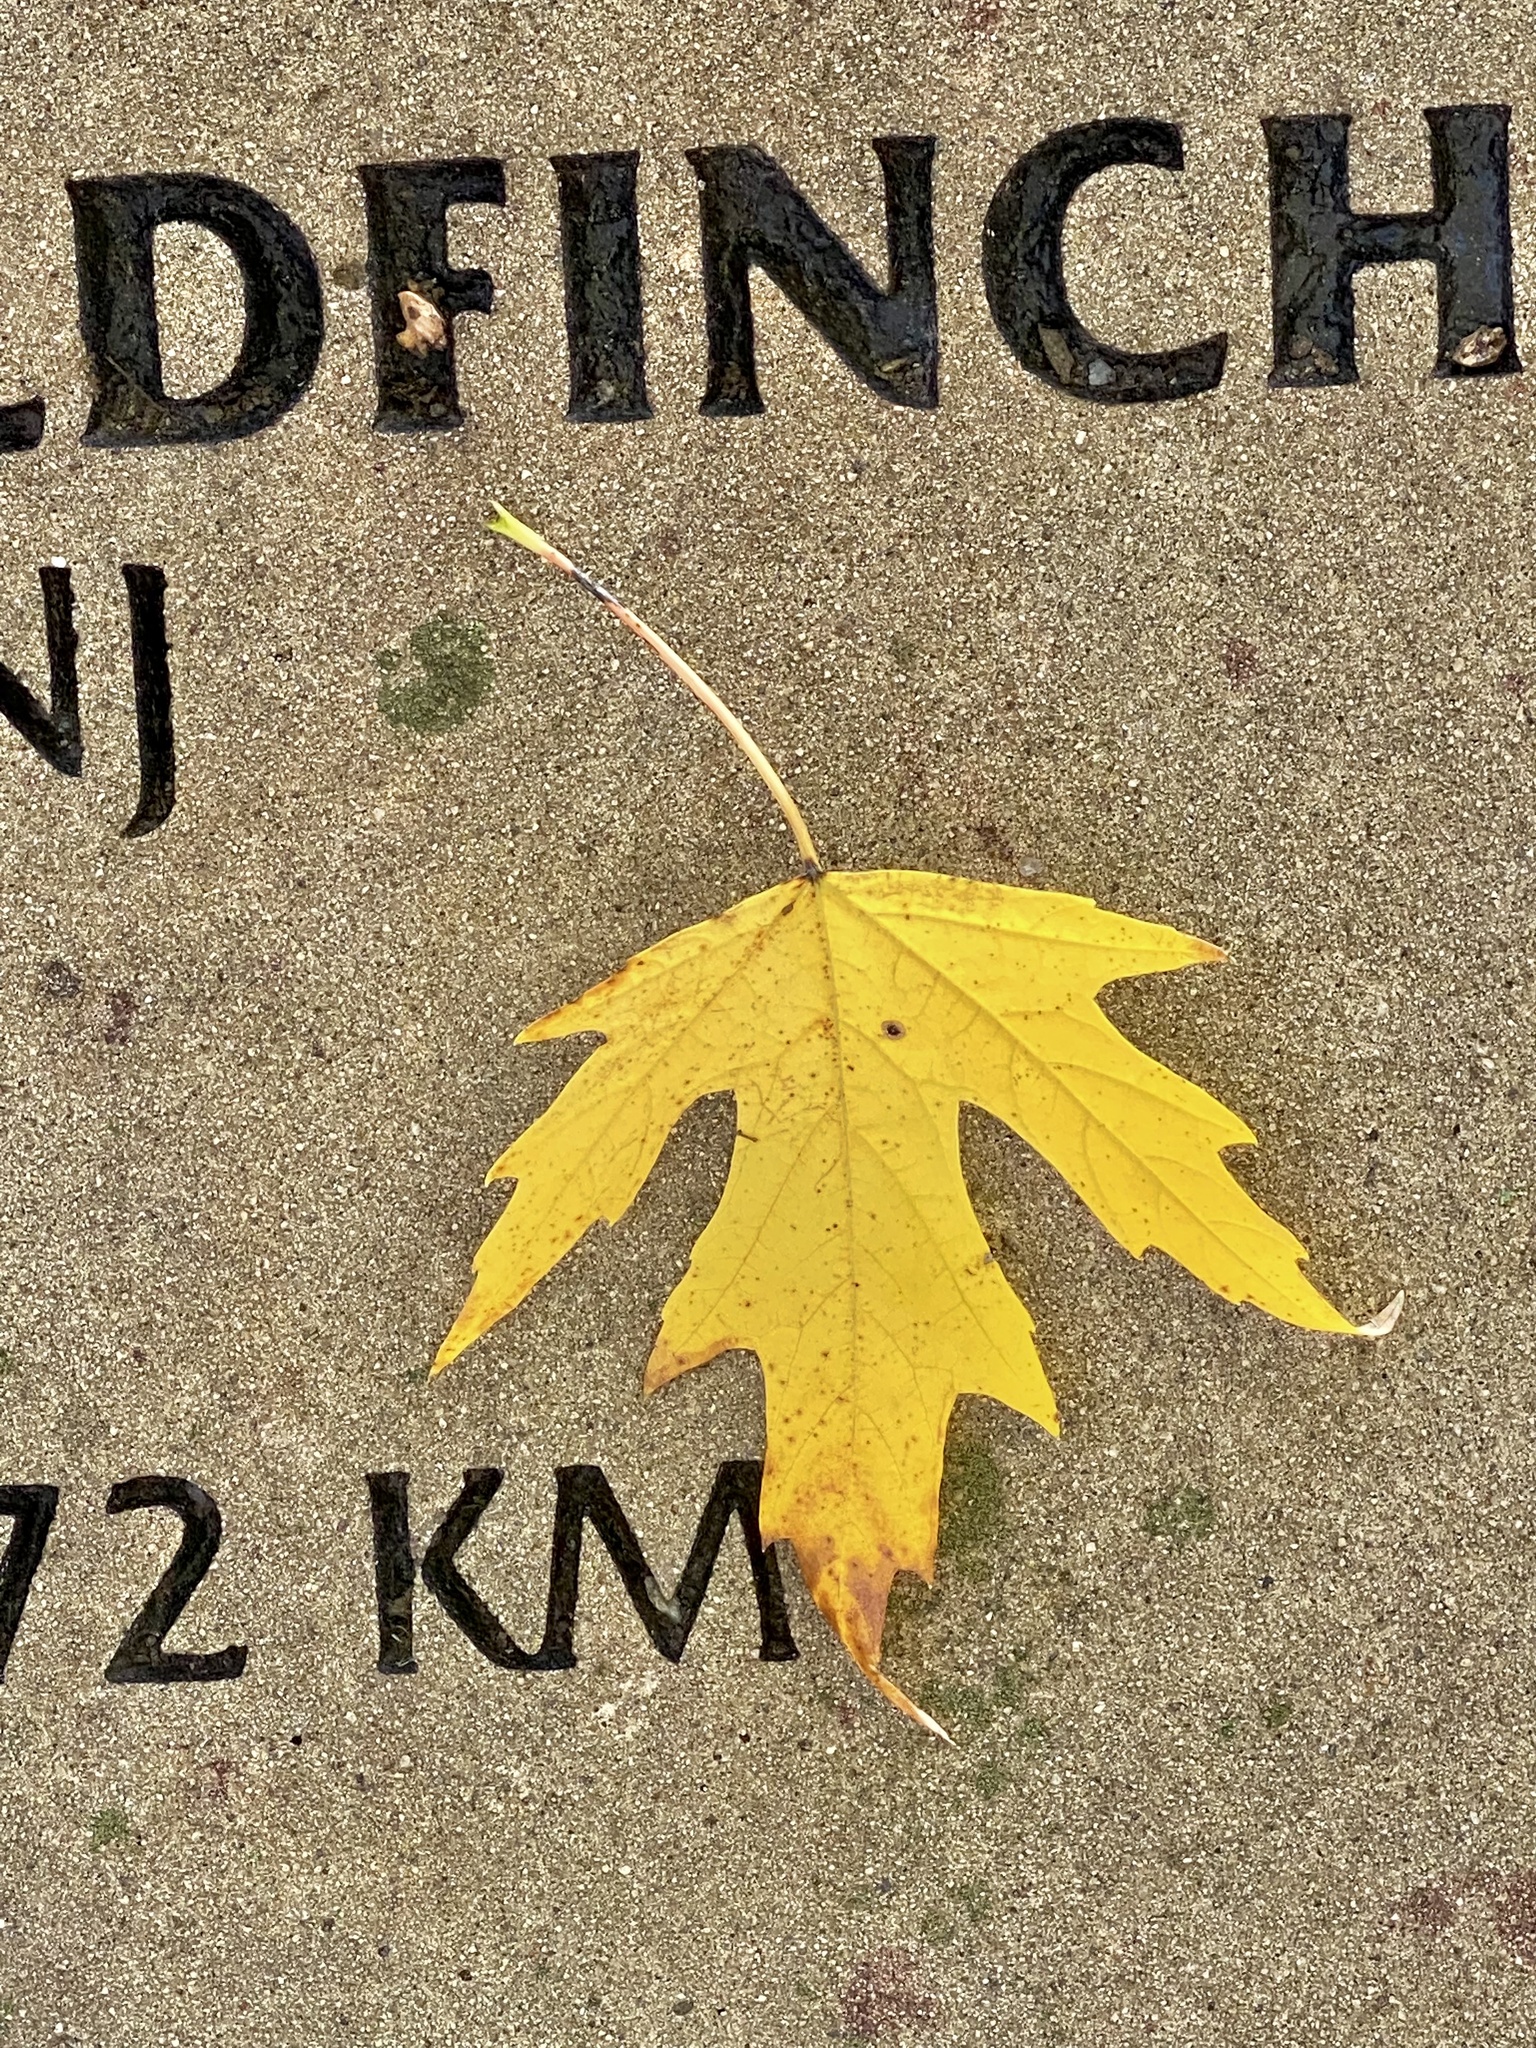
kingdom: Plantae
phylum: Tracheophyta
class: Magnoliopsida
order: Sapindales
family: Sapindaceae
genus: Acer
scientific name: Acer saccharinum
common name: Silver maple
